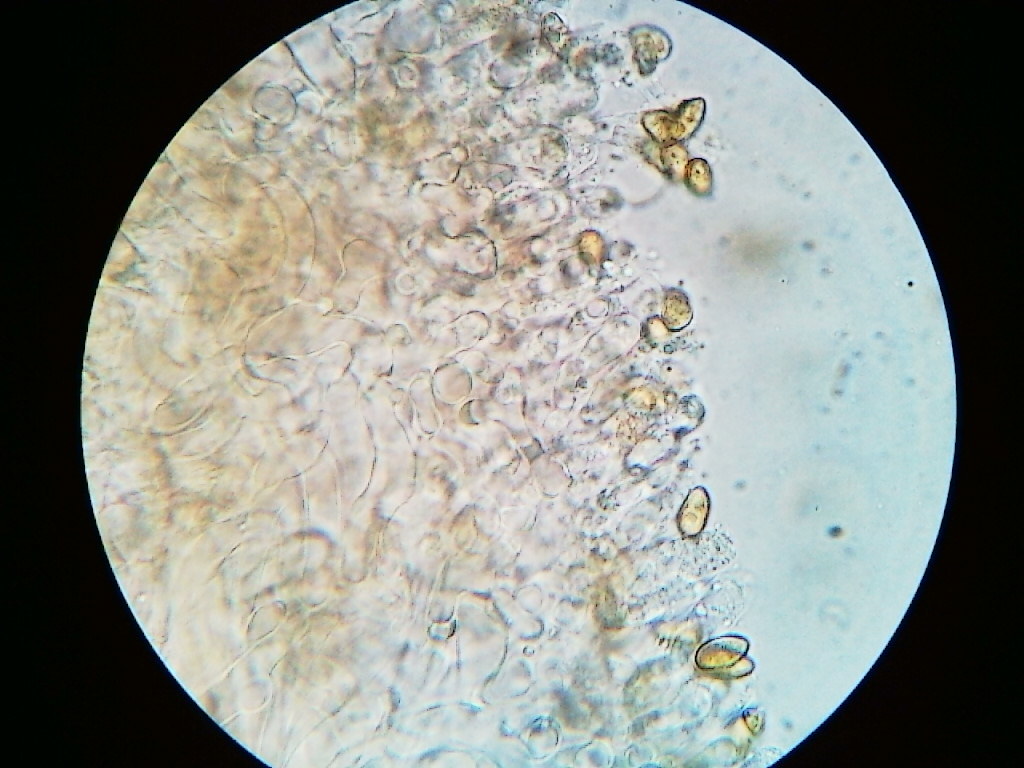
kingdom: Fungi
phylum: Basidiomycota
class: Agaricomycetes
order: Agaricales
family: Hymenogastraceae
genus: Galerina
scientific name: Galerina stordalii
